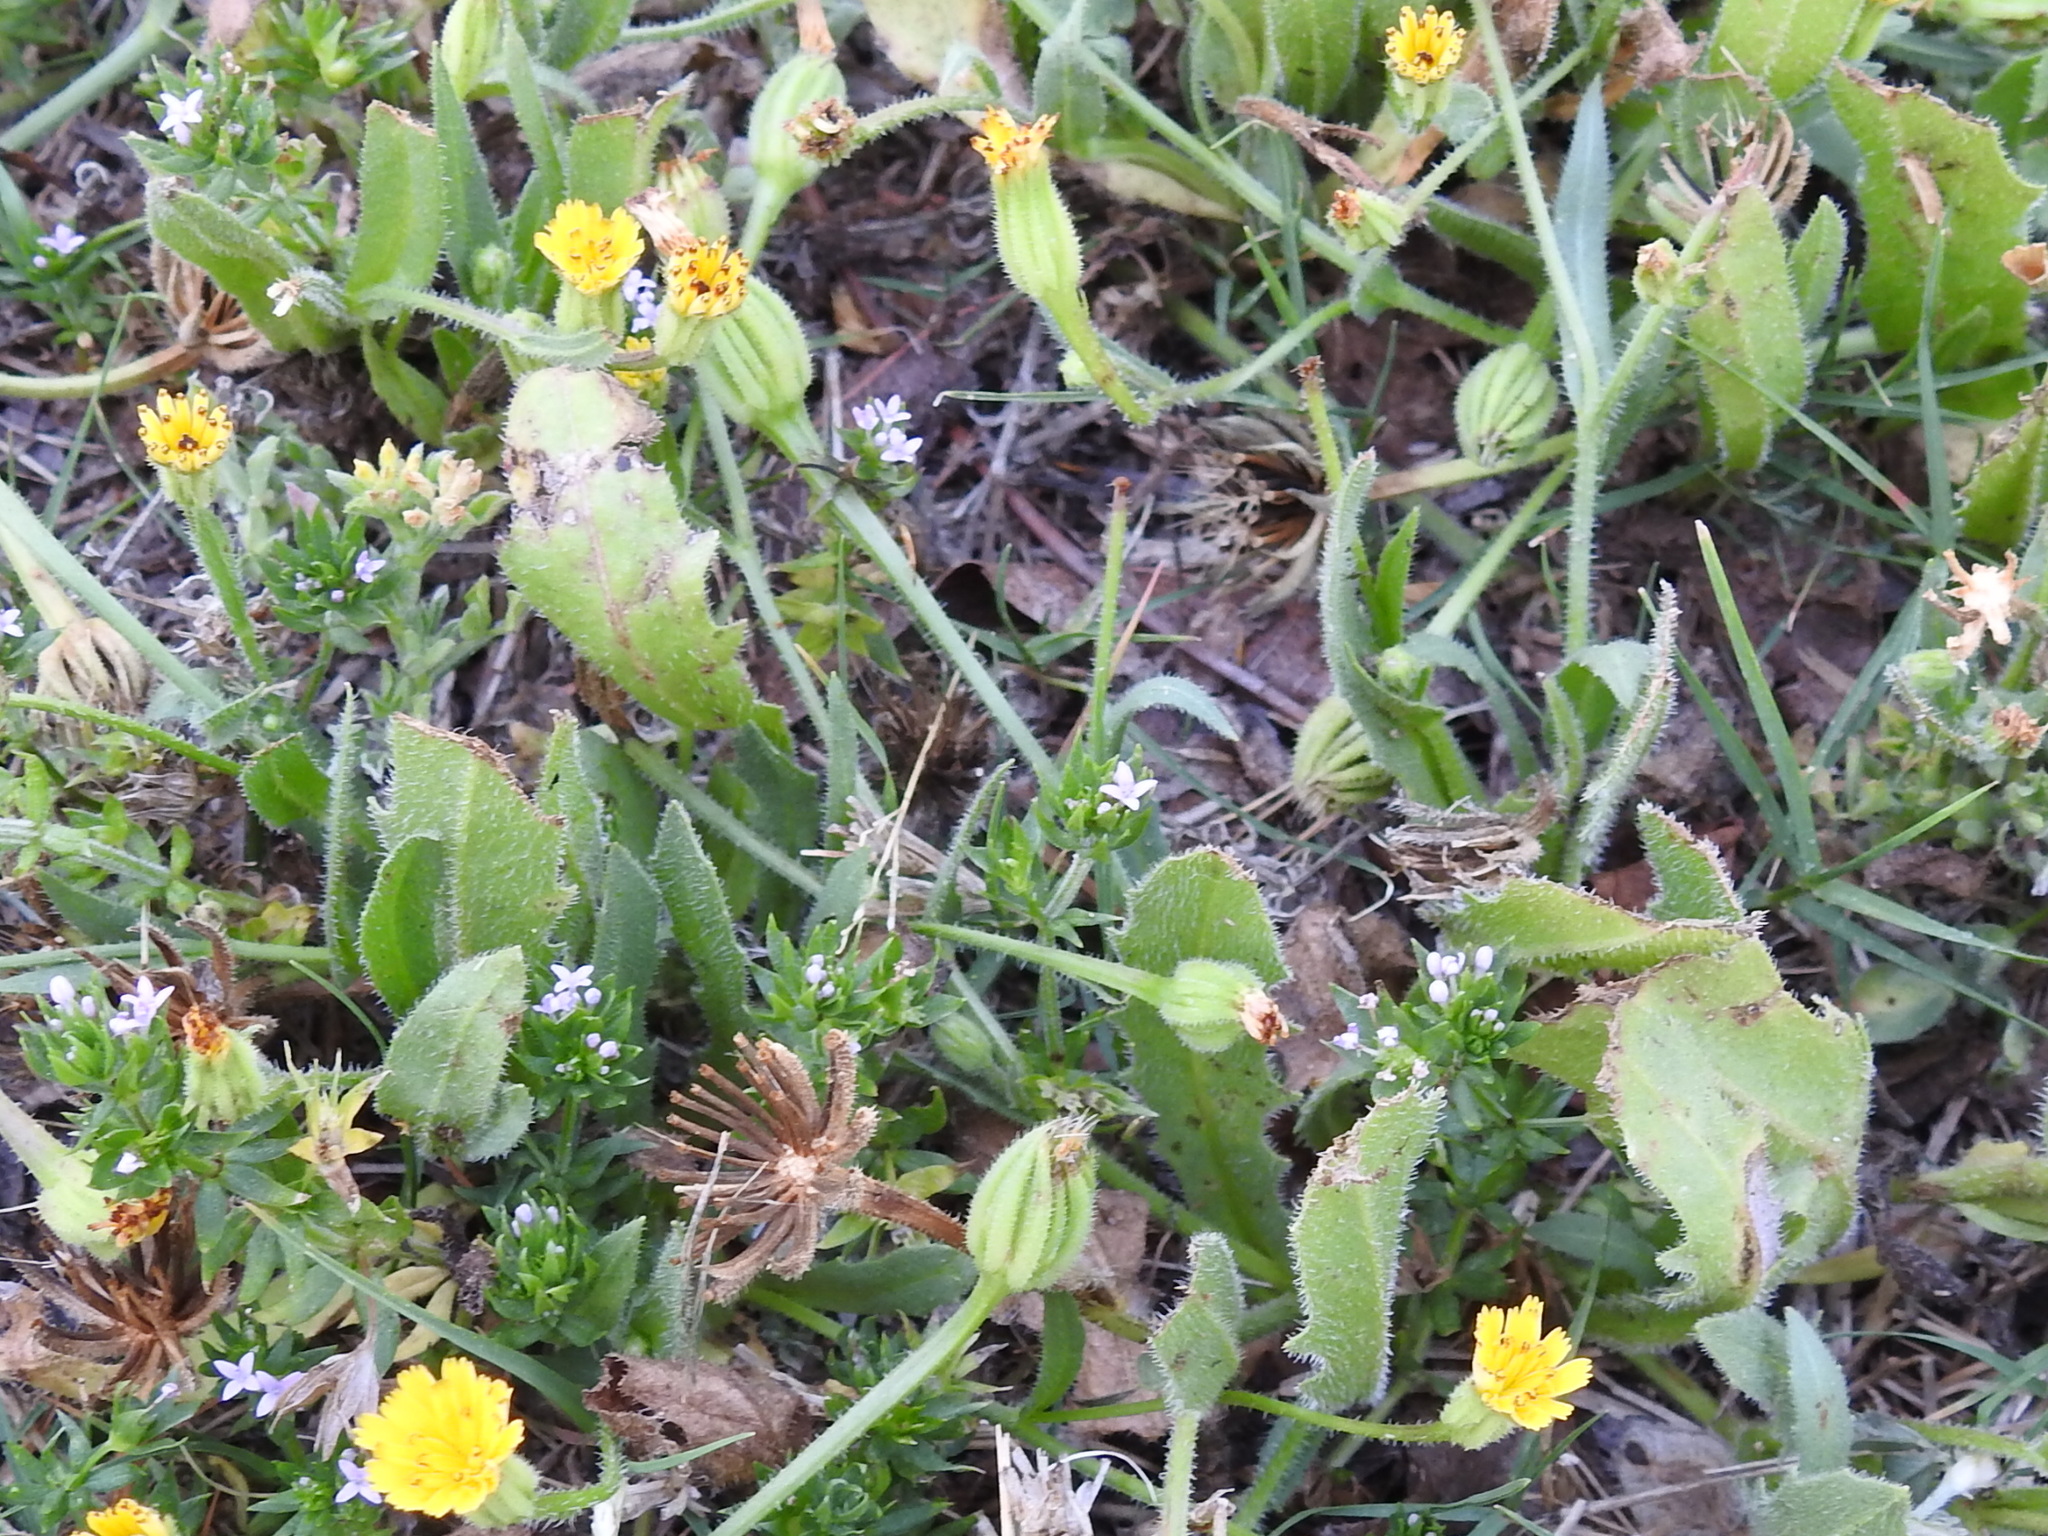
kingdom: Plantae
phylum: Tracheophyta
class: Magnoliopsida
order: Asterales
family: Asteraceae
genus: Hedypnois
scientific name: Hedypnois rhagadioloides
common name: Cretan weed
